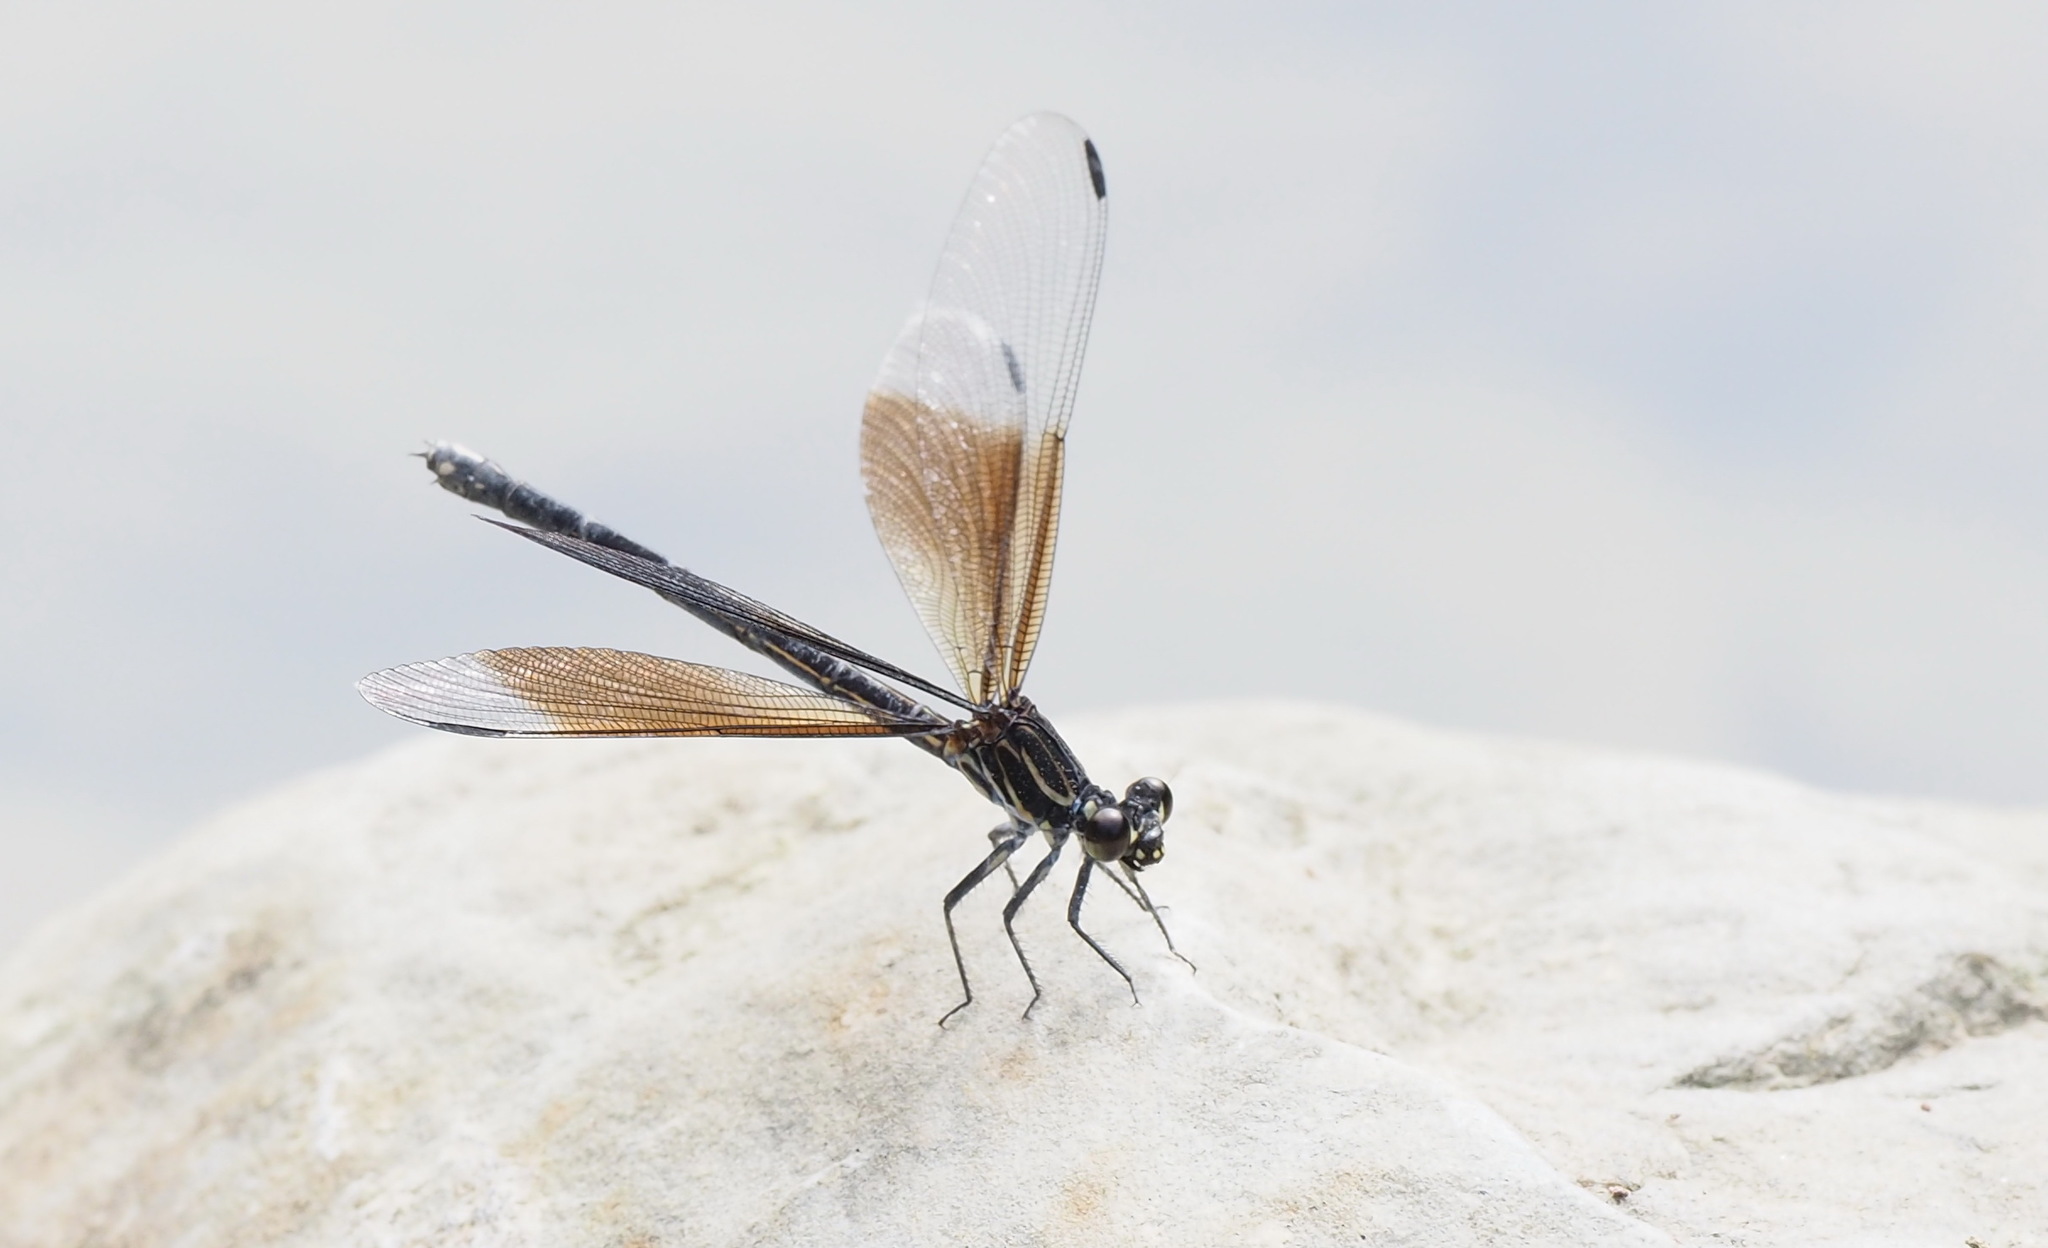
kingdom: Animalia
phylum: Arthropoda
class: Insecta
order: Odonata
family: Euphaeidae
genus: Euphaea
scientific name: Euphaea formosa
